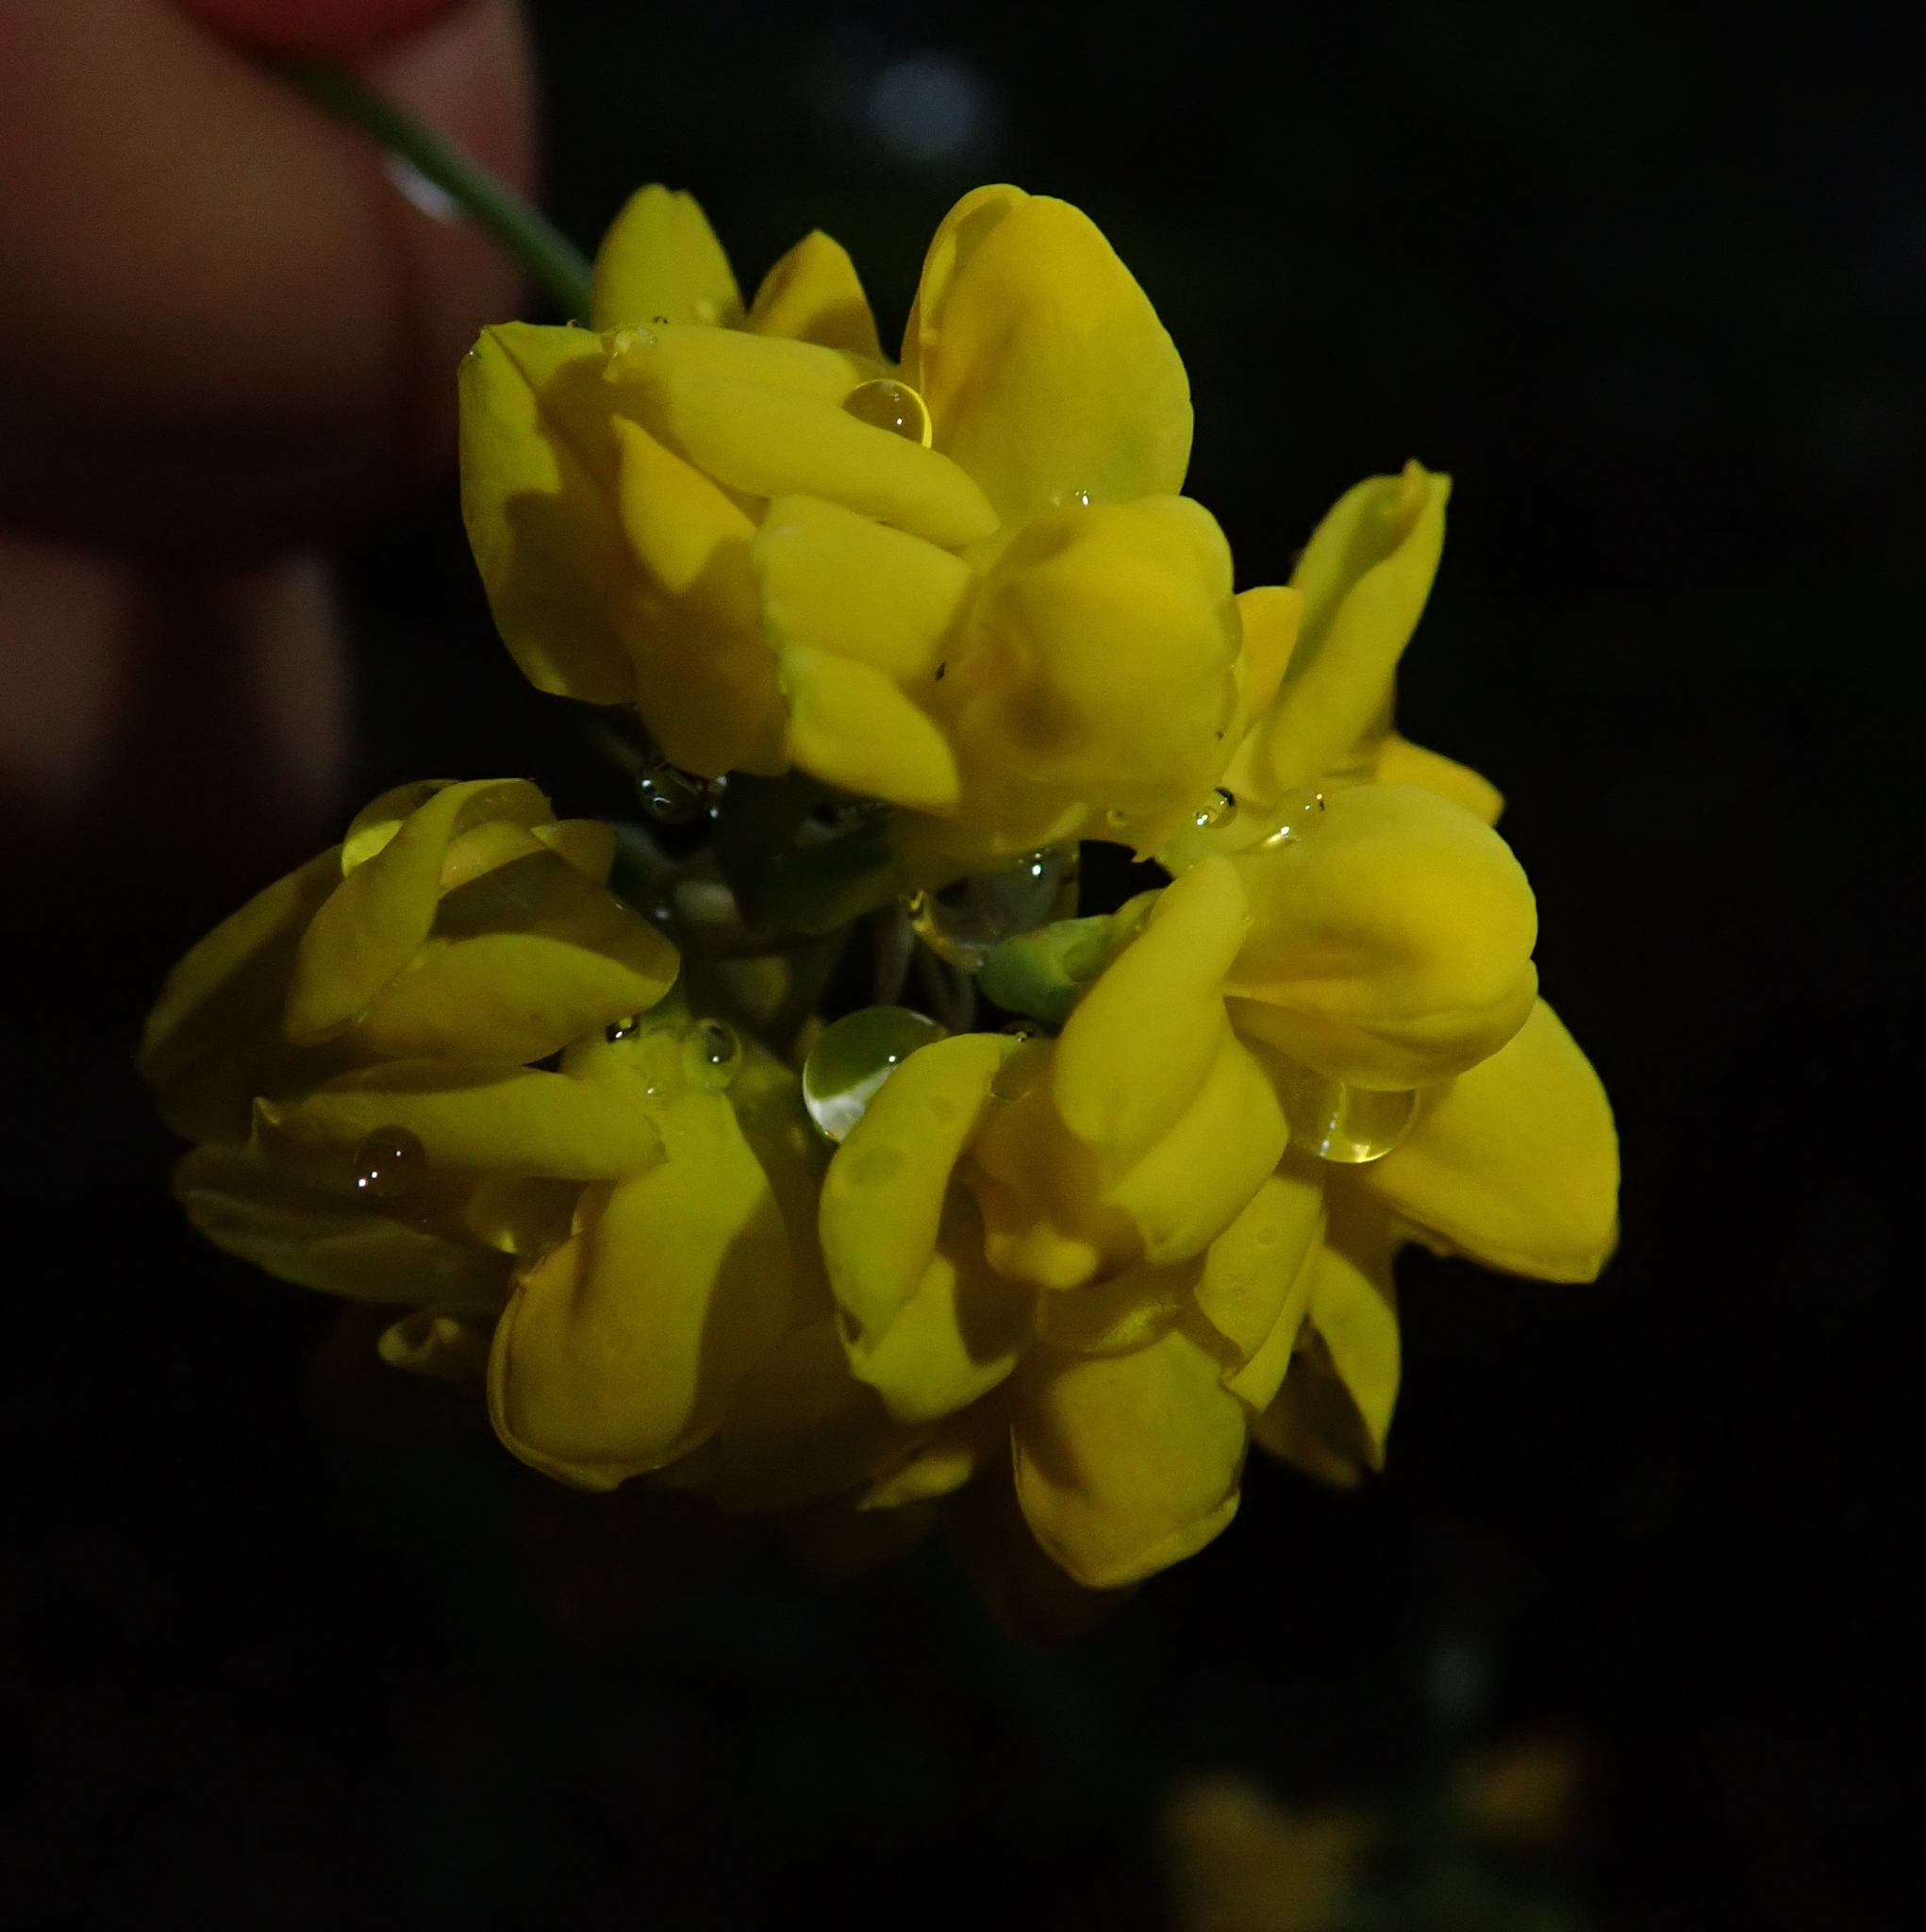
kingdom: Plantae
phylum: Tracheophyta
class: Magnoliopsida
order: Fabales
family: Fabaceae
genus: Coronilla
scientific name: Coronilla coronata
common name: Scorpion-vetch
